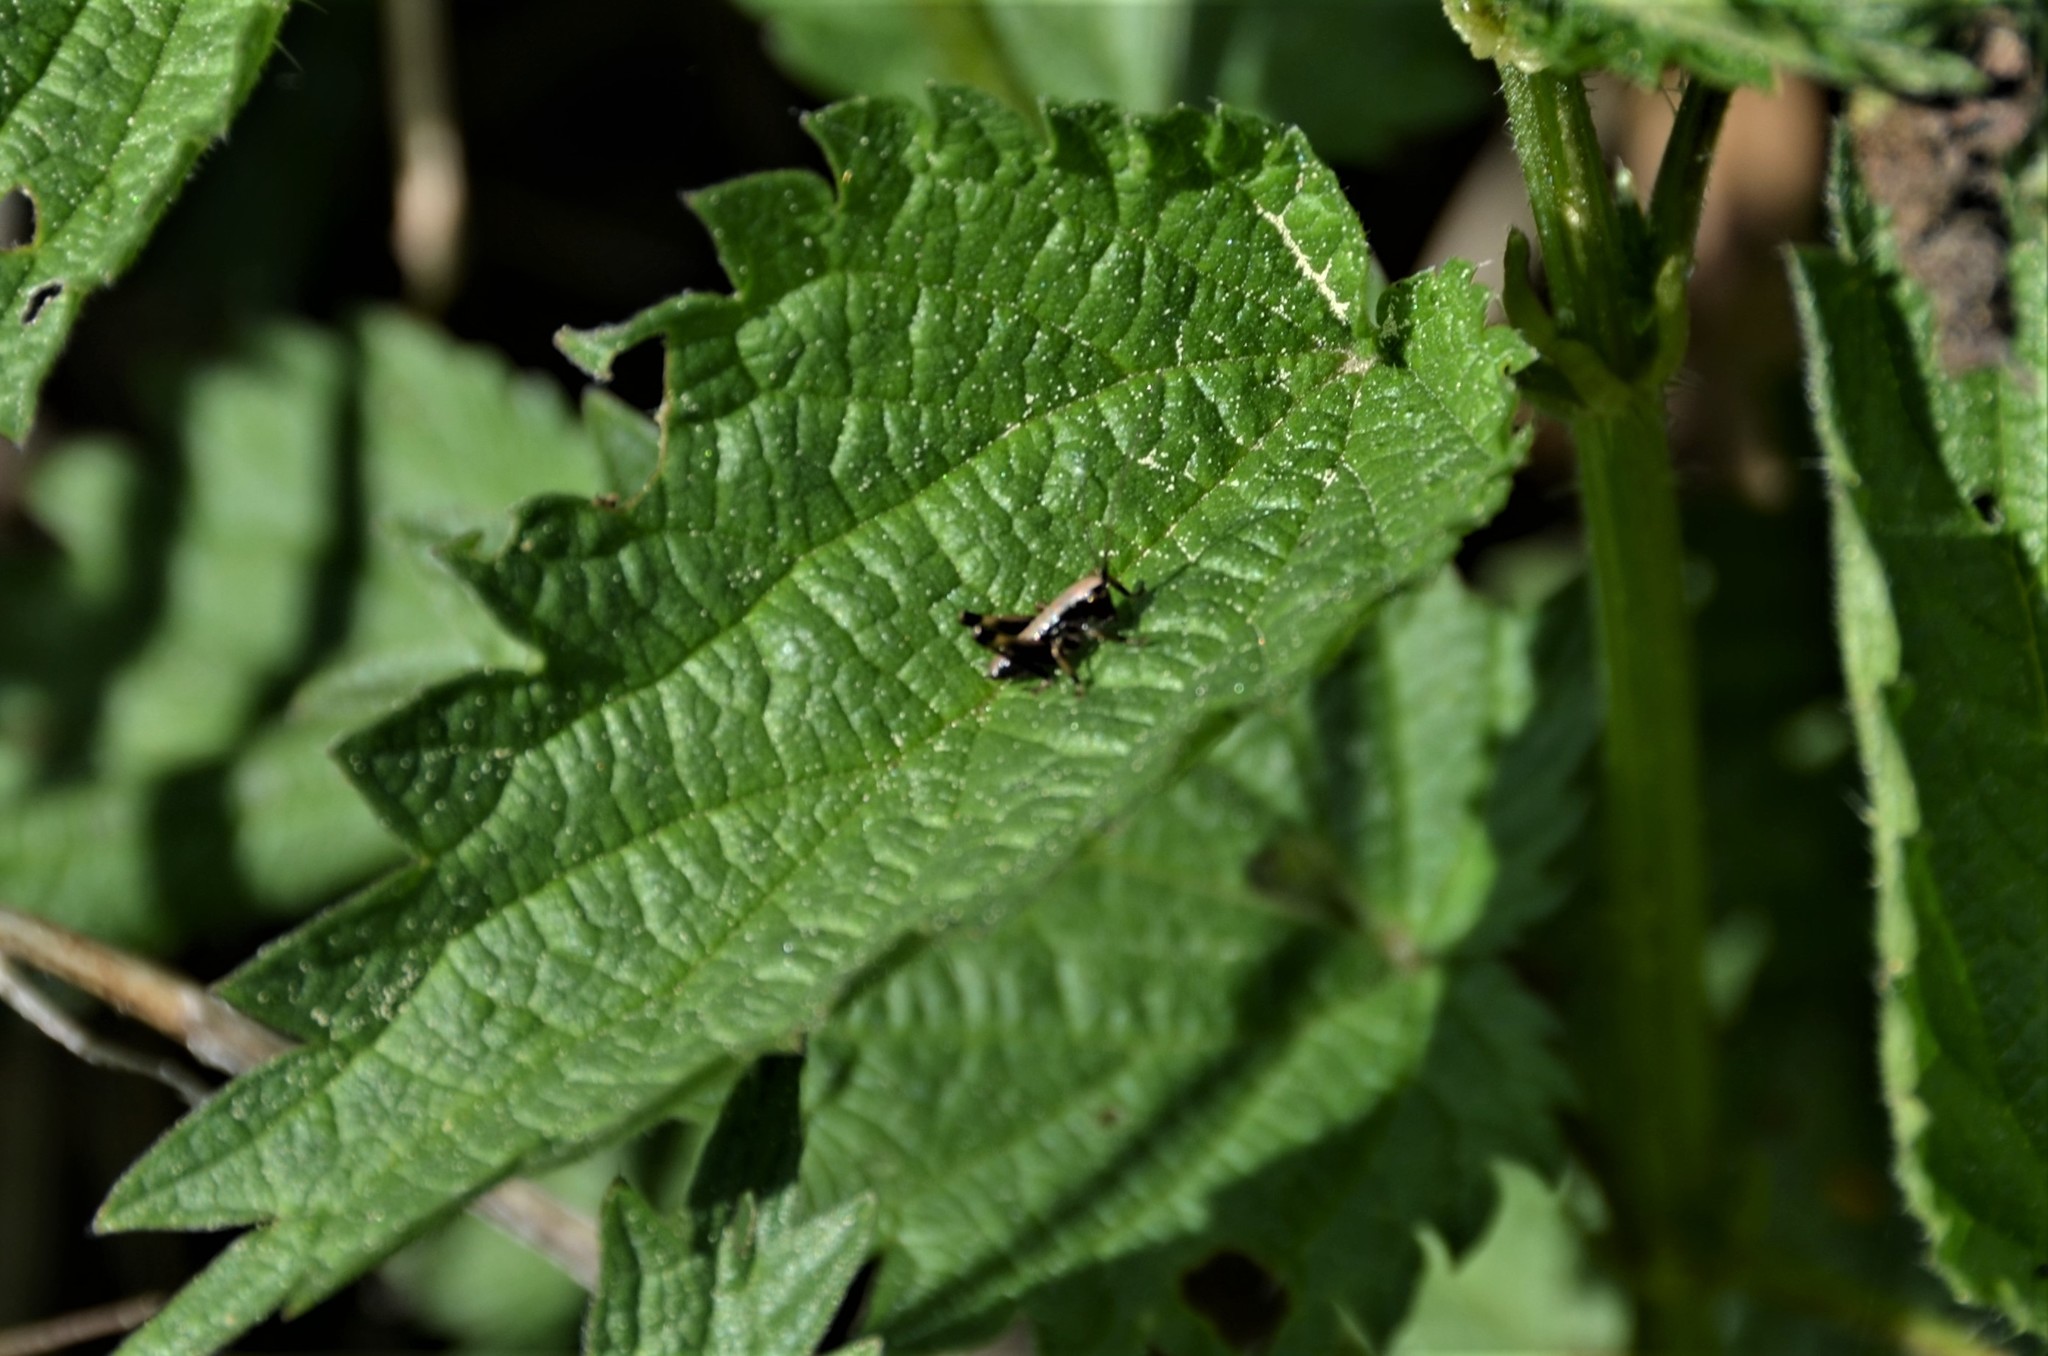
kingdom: Animalia
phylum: Arthropoda
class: Insecta
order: Orthoptera
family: Tettigoniidae
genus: Pholidoptera
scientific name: Pholidoptera griseoaptera
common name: Dark bush-cricket
